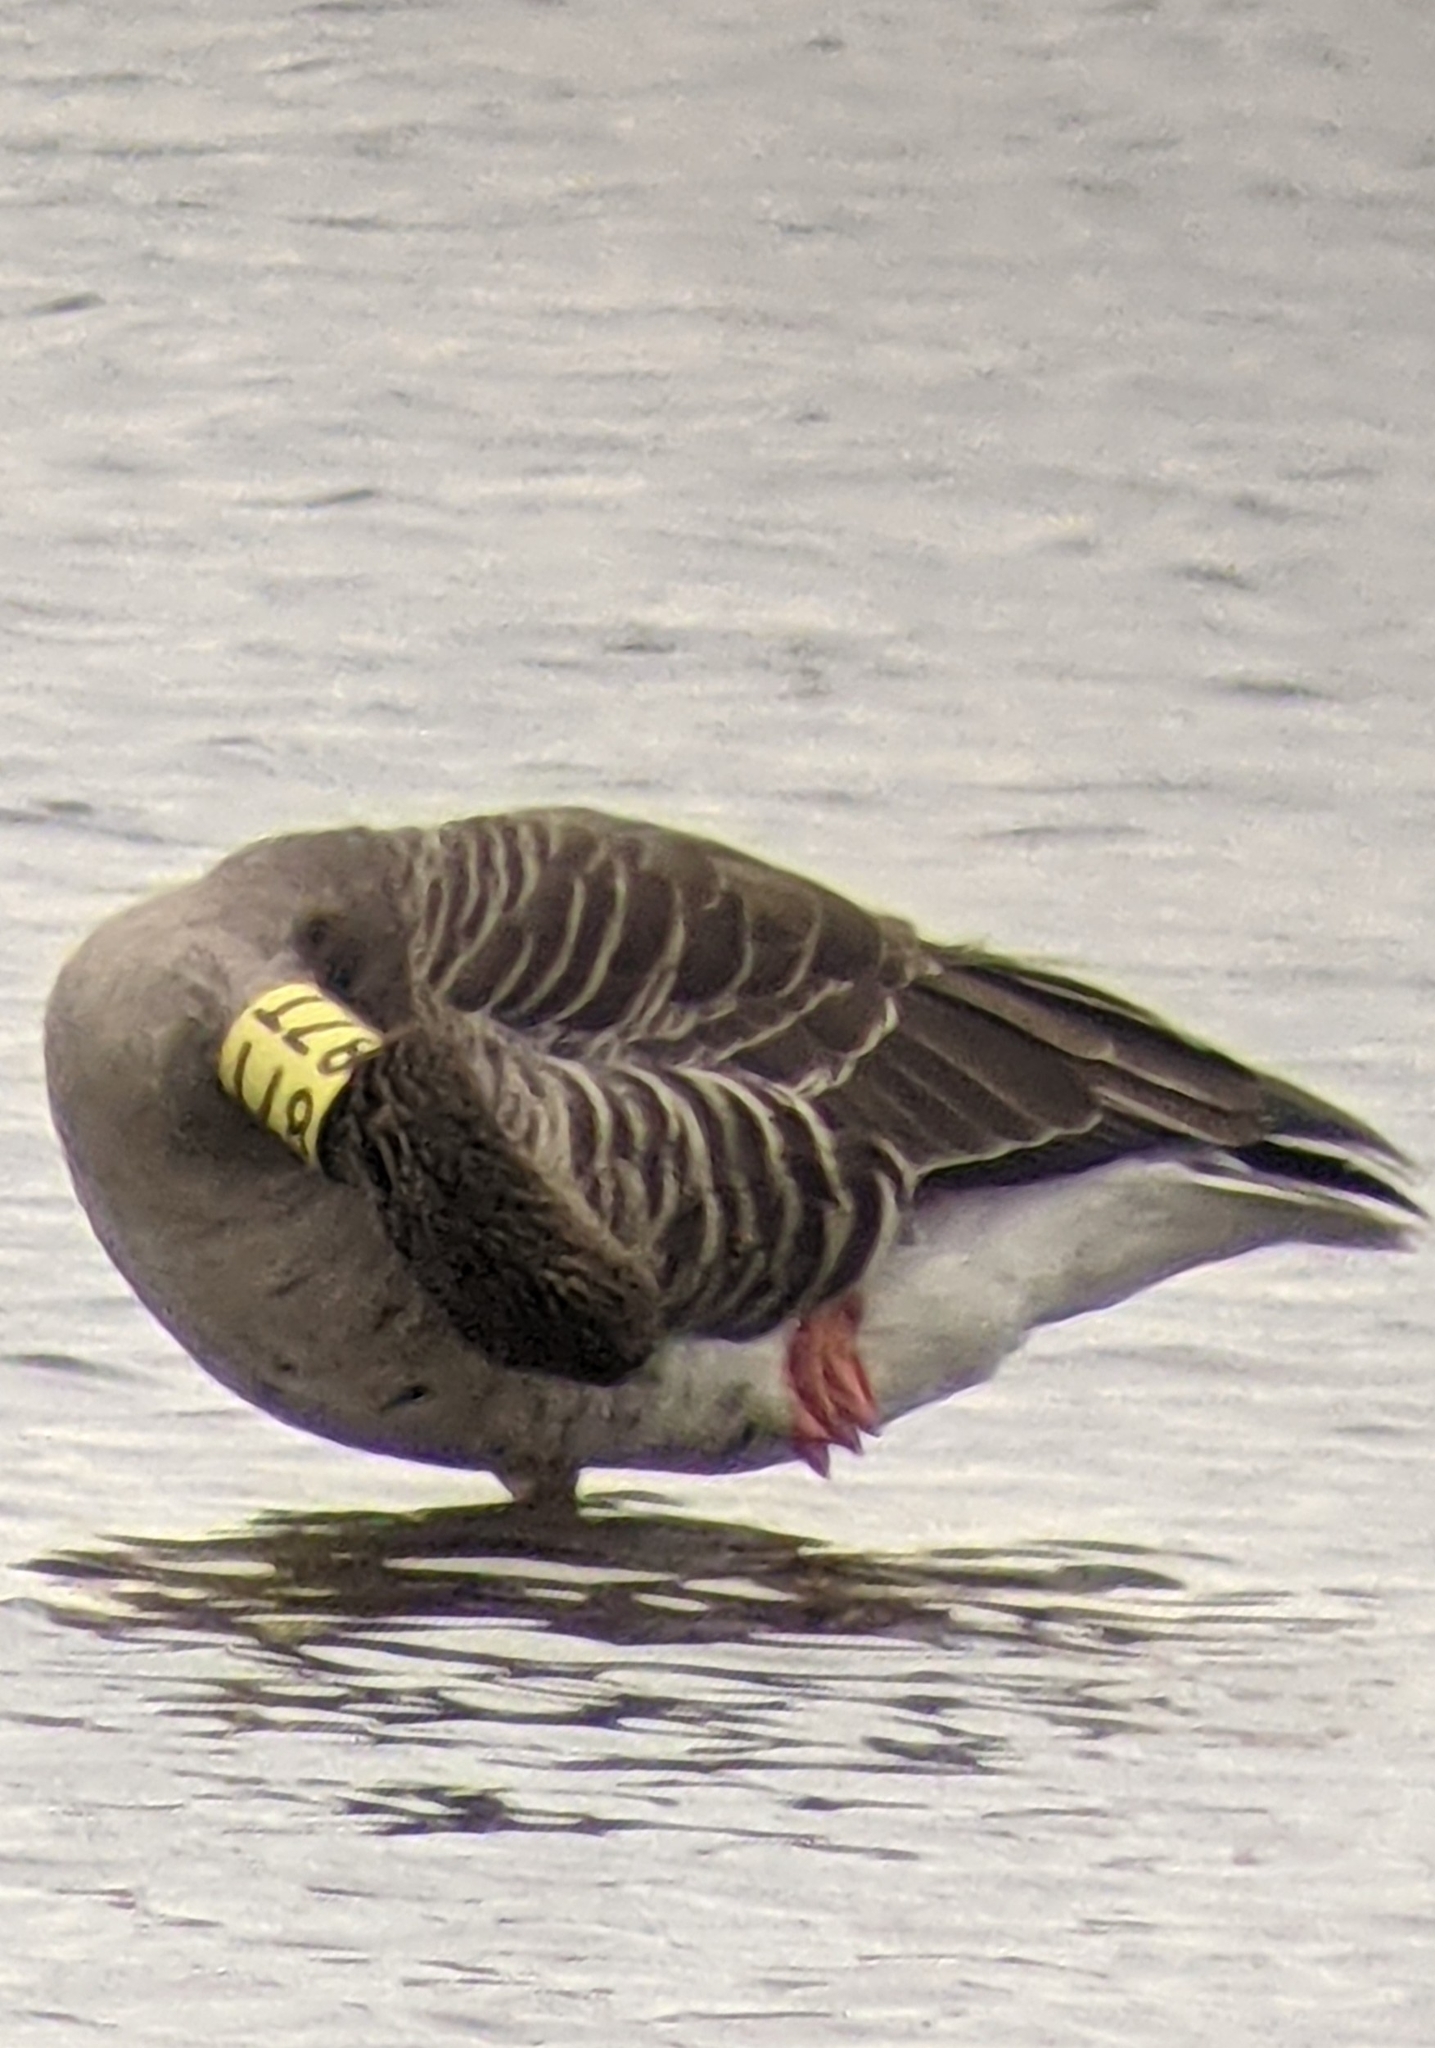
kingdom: Animalia
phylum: Chordata
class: Aves
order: Anseriformes
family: Anatidae
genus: Anser
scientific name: Anser anser
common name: Greylag goose
